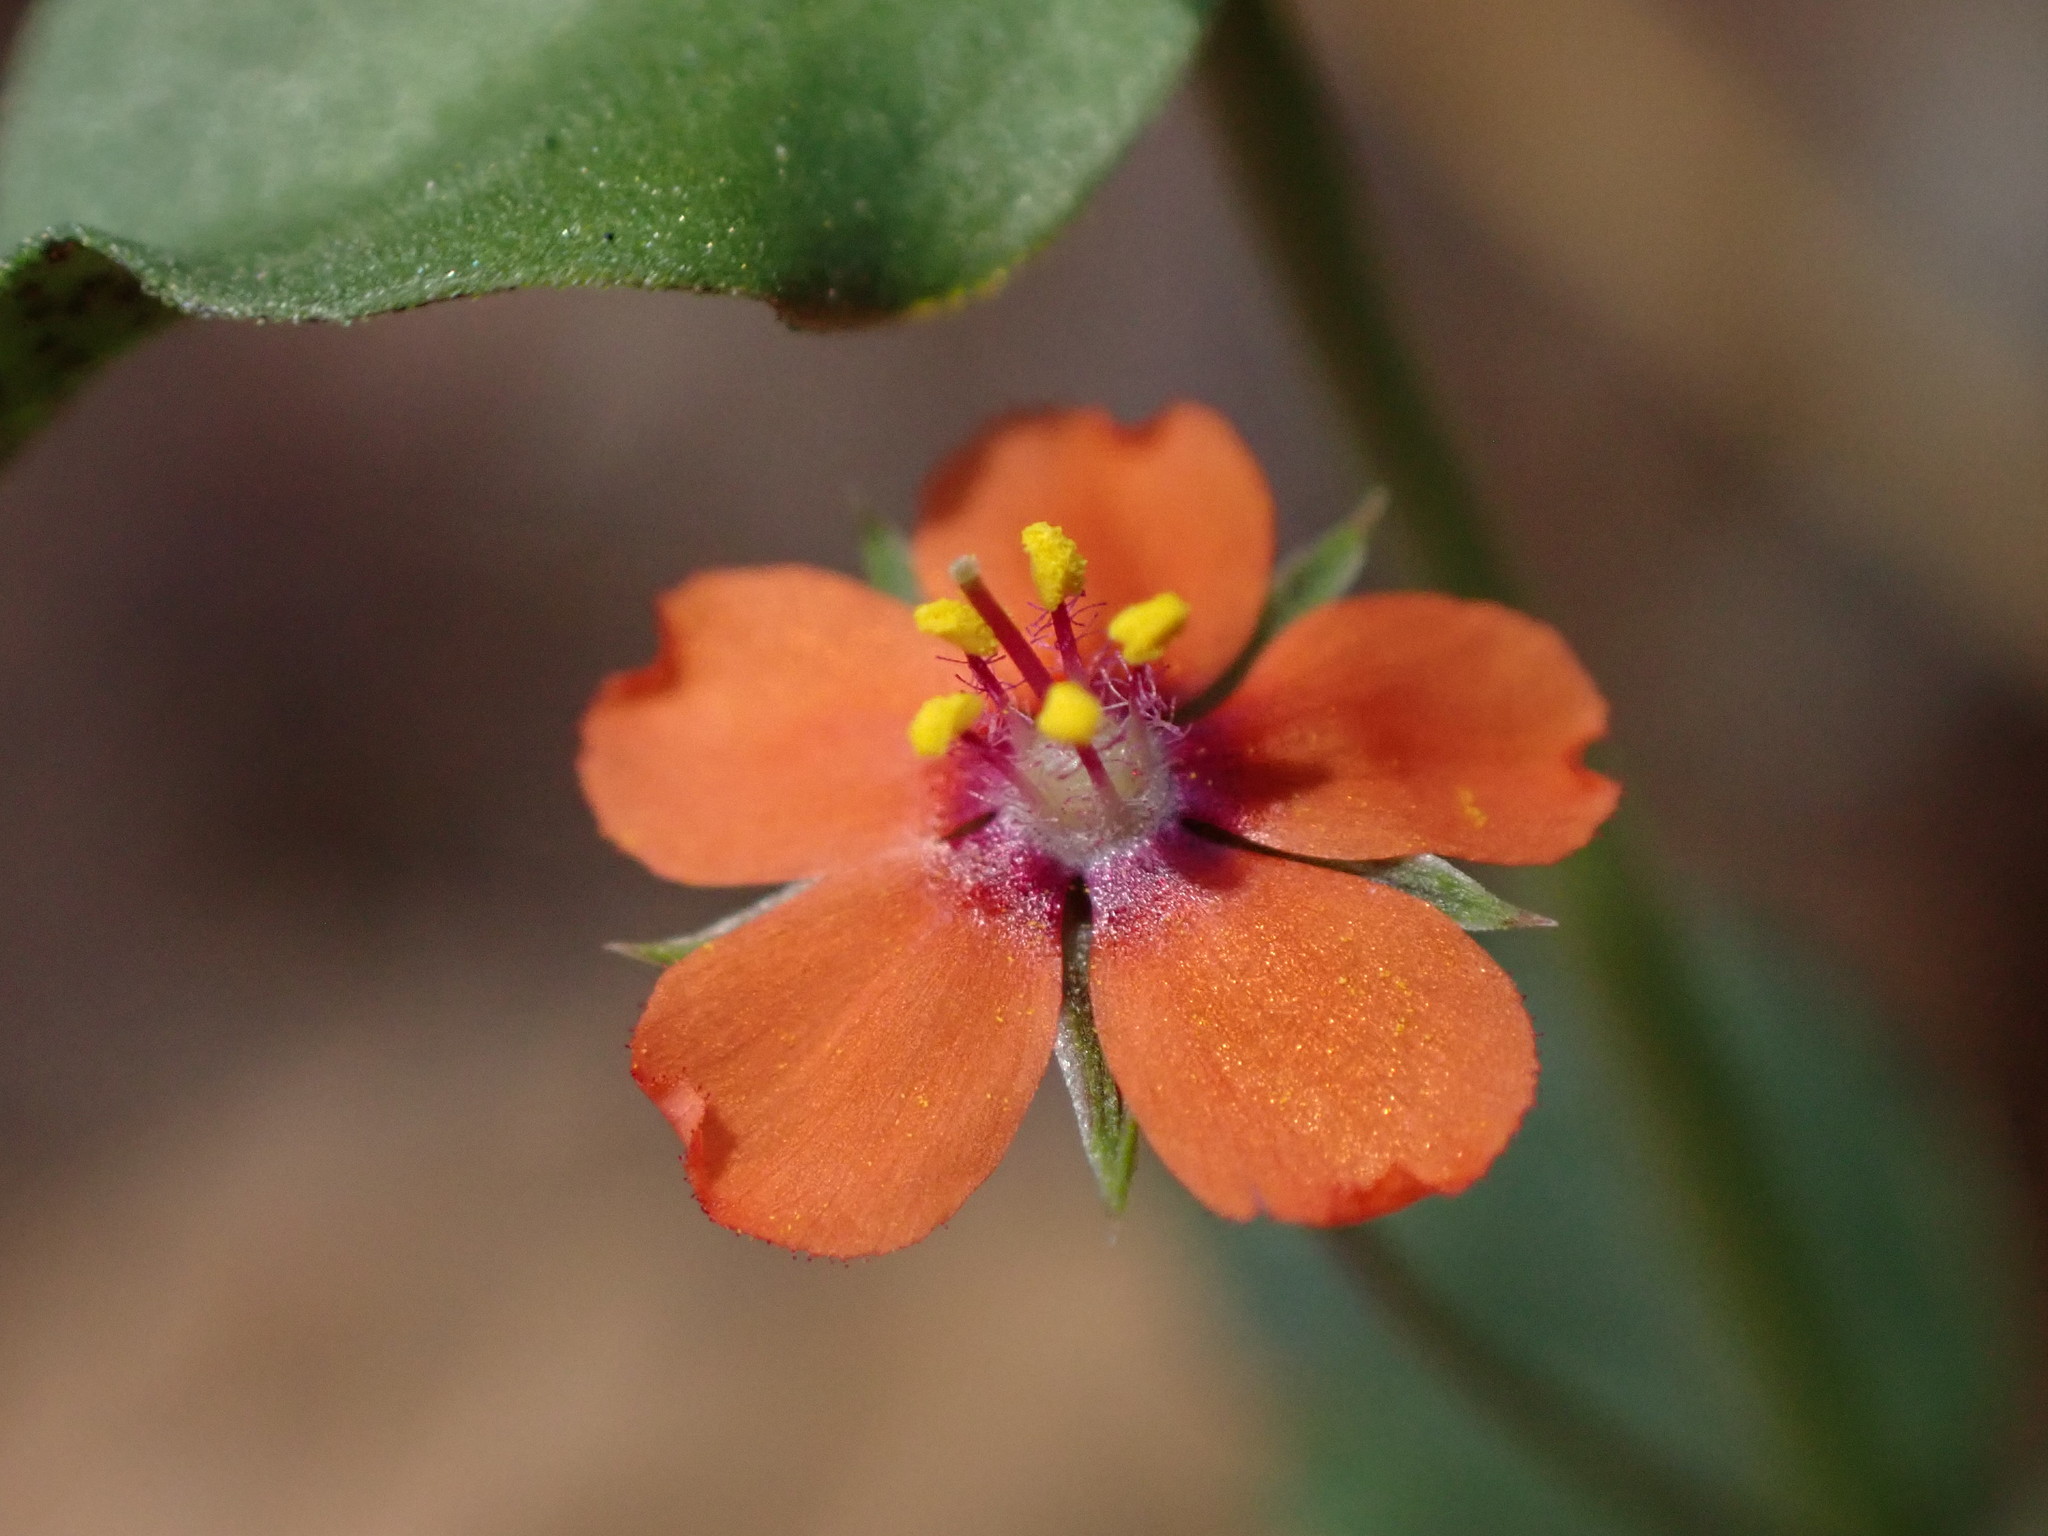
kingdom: Plantae
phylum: Tracheophyta
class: Magnoliopsida
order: Ericales
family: Primulaceae
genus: Lysimachia
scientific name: Lysimachia arvensis
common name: Scarlet pimpernel
